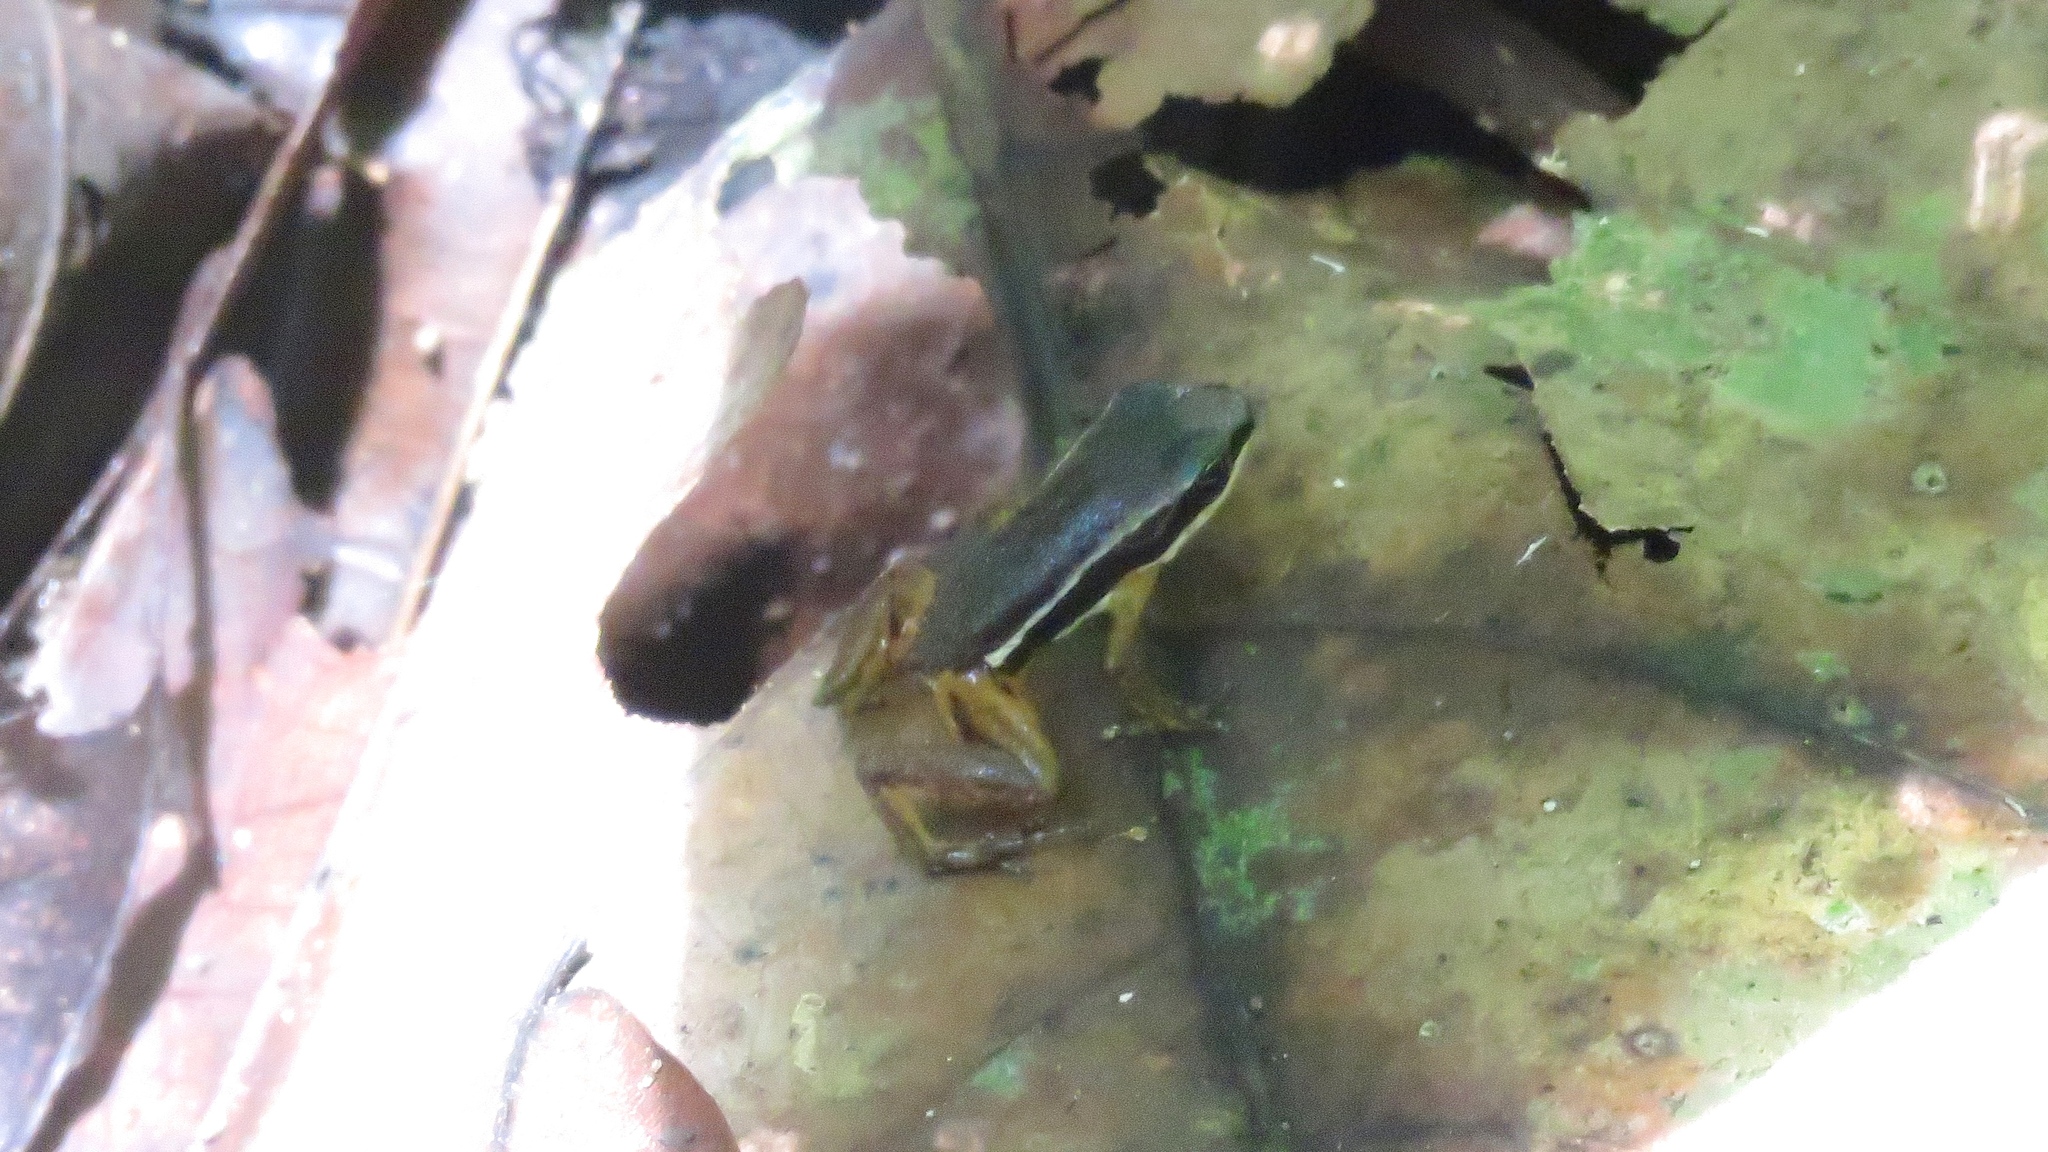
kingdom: Animalia
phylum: Chordata
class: Amphibia
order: Anura
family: Dendrobatidae
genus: Silverstoneia
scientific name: Silverstoneia flotator
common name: Rainforest rocket frog
